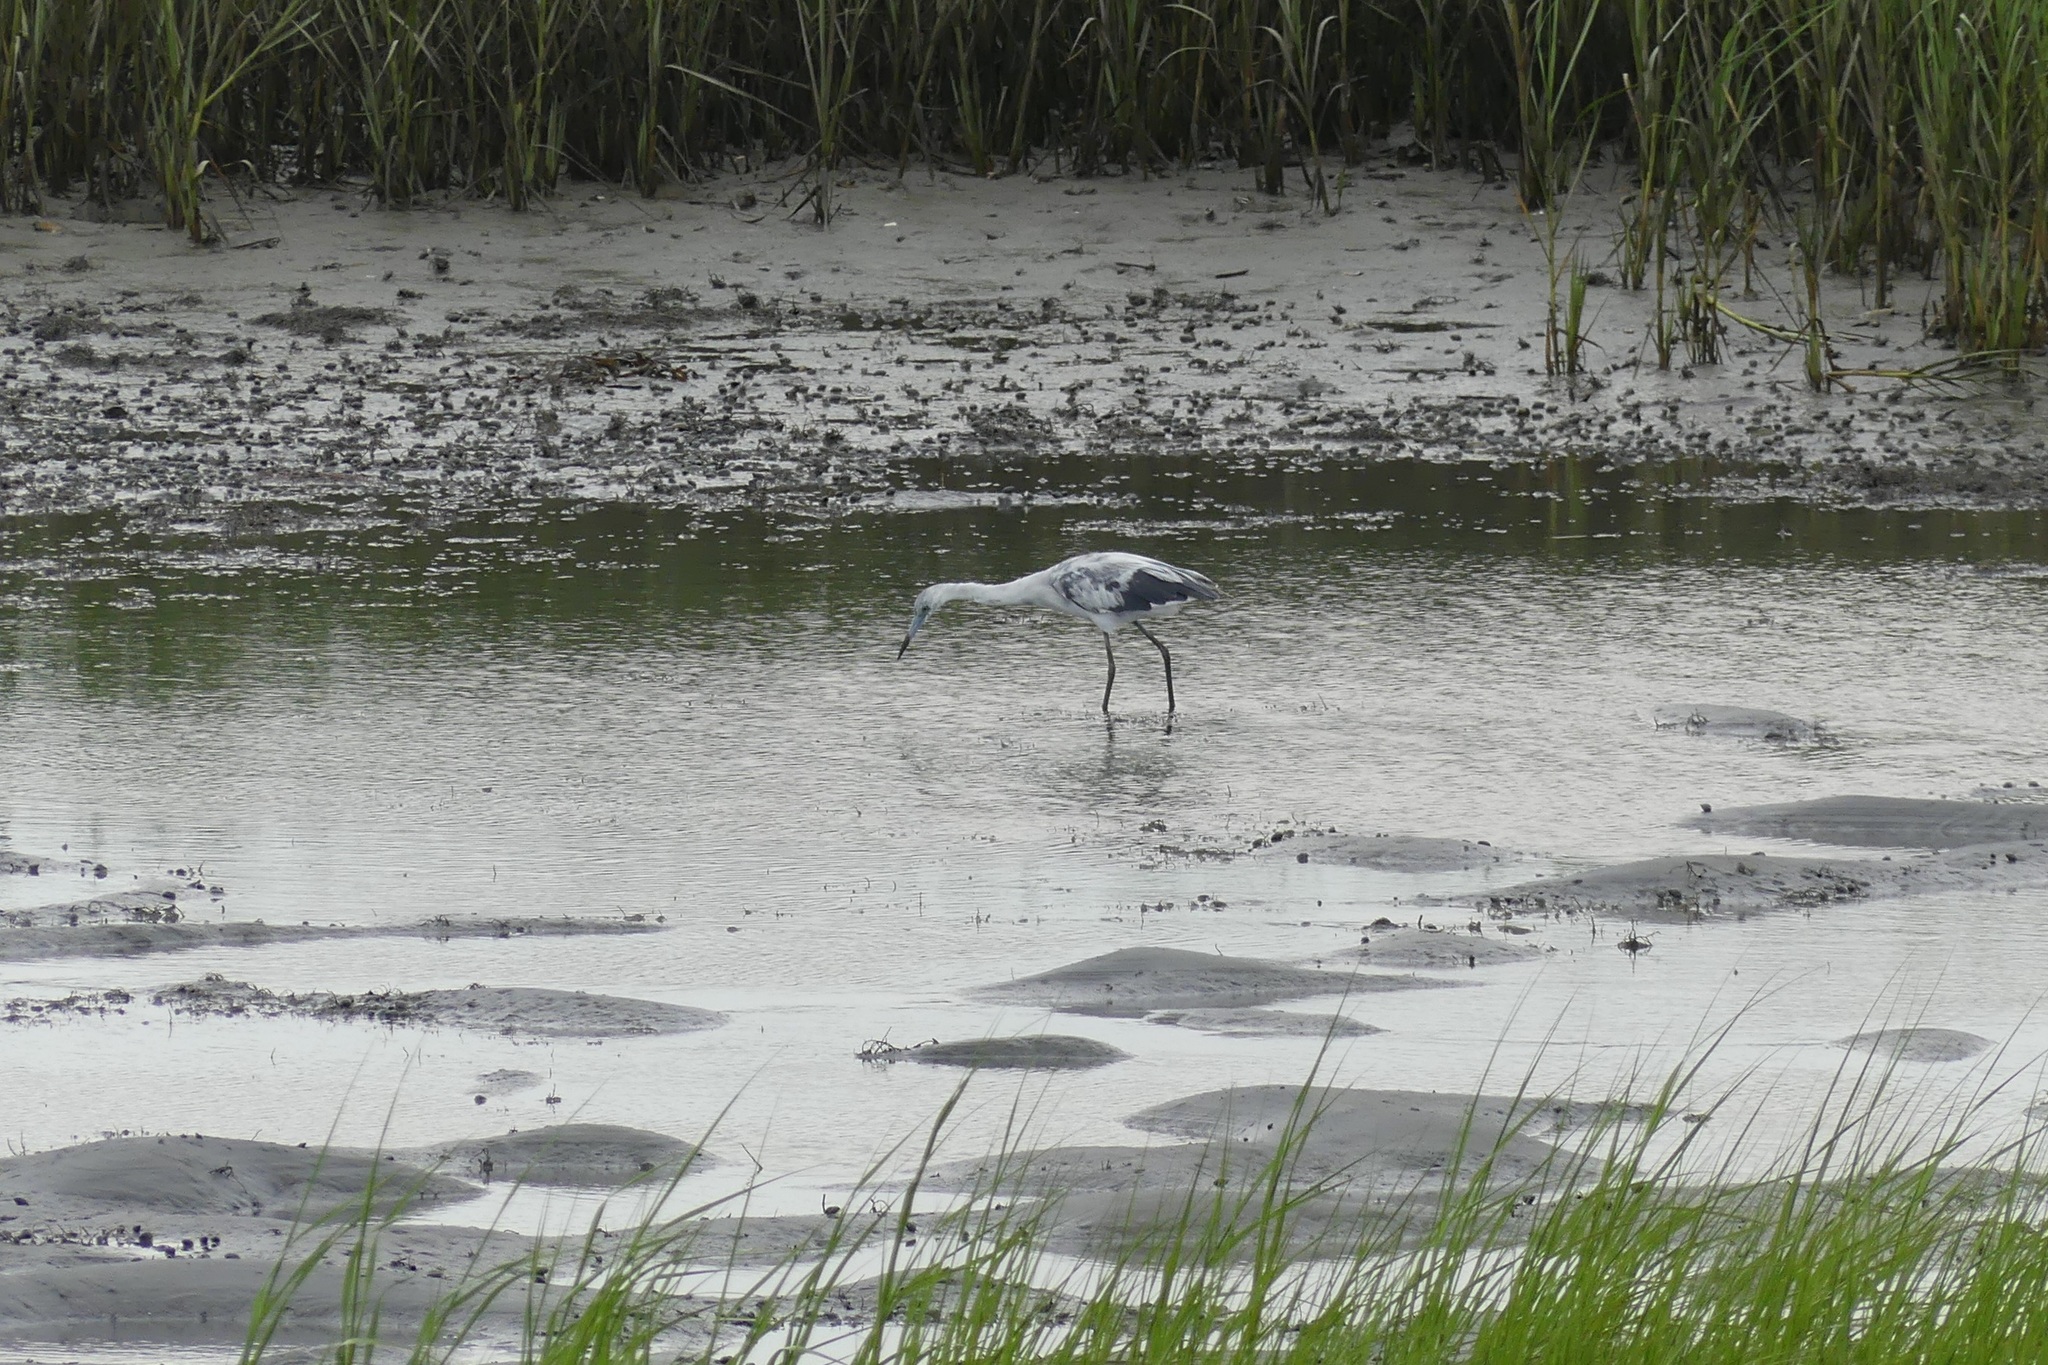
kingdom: Animalia
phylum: Chordata
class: Aves
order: Pelecaniformes
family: Ardeidae
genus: Egretta
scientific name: Egretta caerulea
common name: Little blue heron
